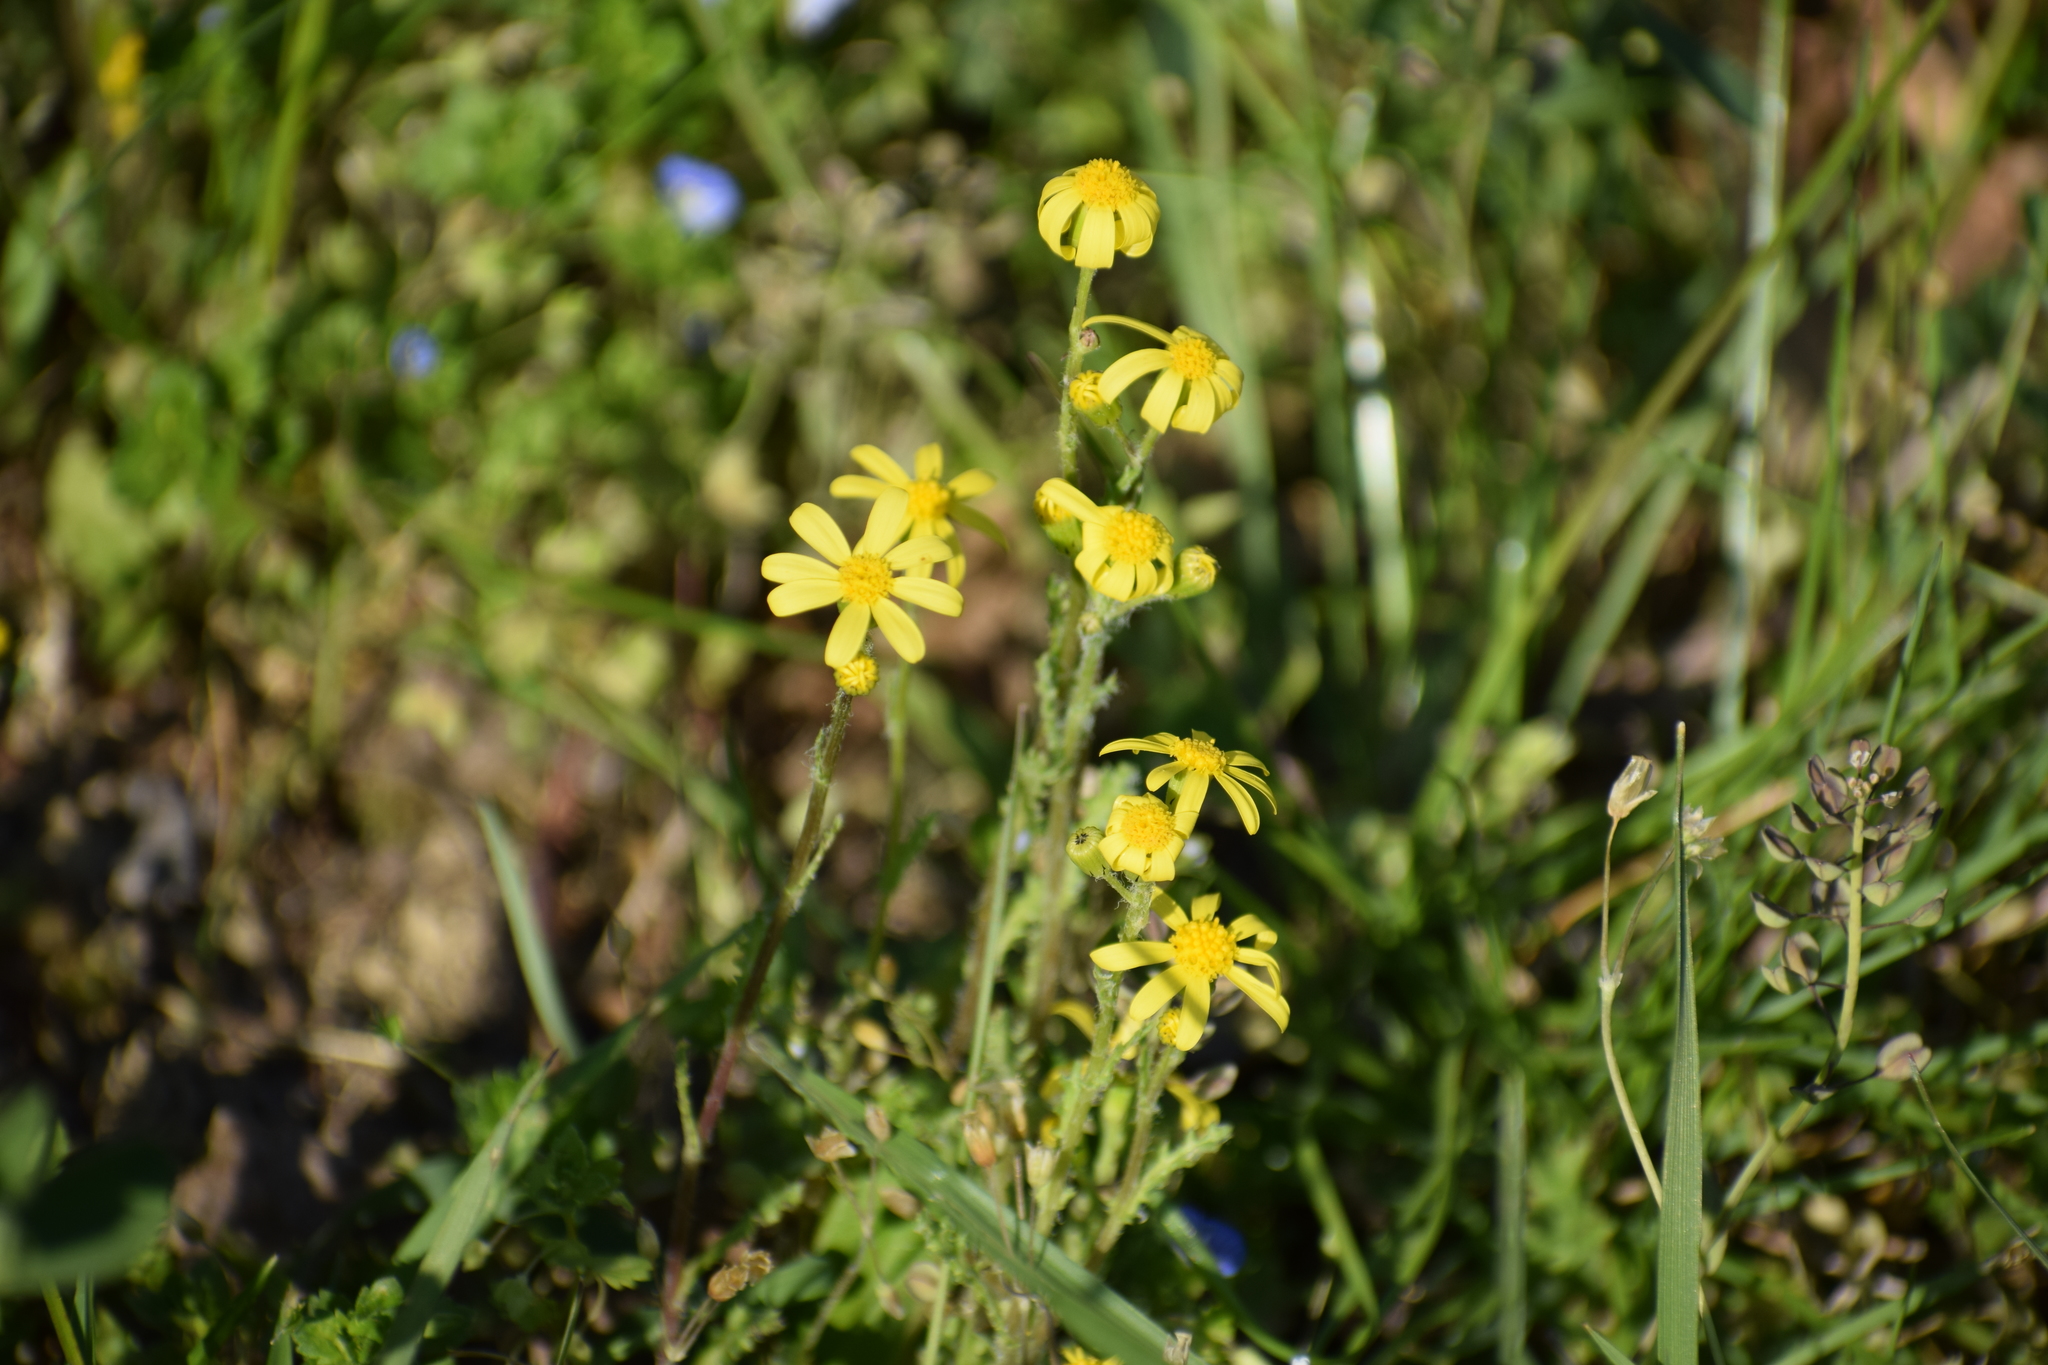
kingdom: Plantae
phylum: Tracheophyta
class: Magnoliopsida
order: Asterales
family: Asteraceae
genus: Senecio
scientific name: Senecio vernalis
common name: Eastern groundsel
